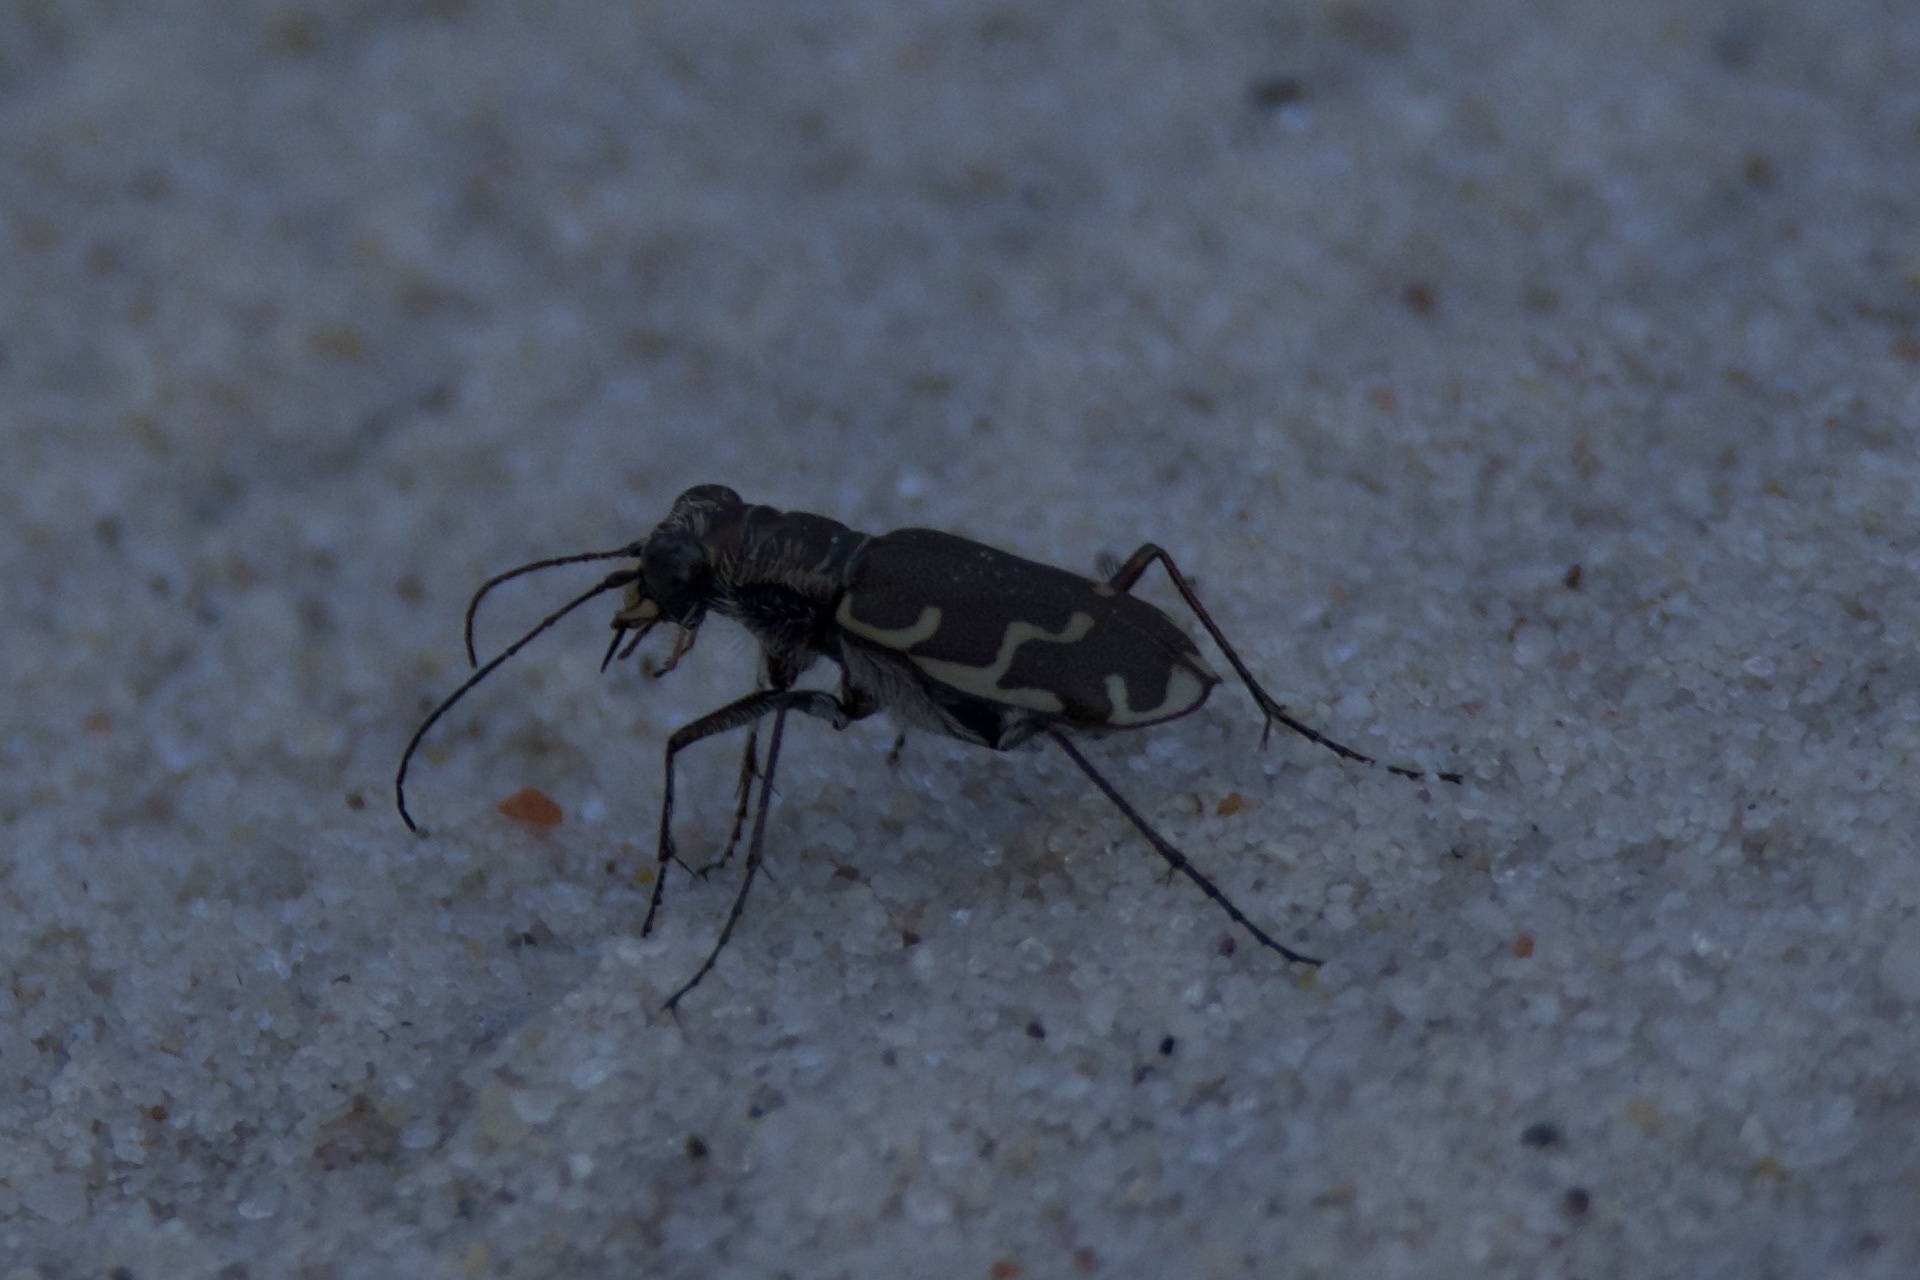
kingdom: Animalia
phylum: Arthropoda
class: Insecta
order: Coleoptera
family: Carabidae
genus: Cicindela
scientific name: Cicindela repanda
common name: Bronzed tiger beetle
